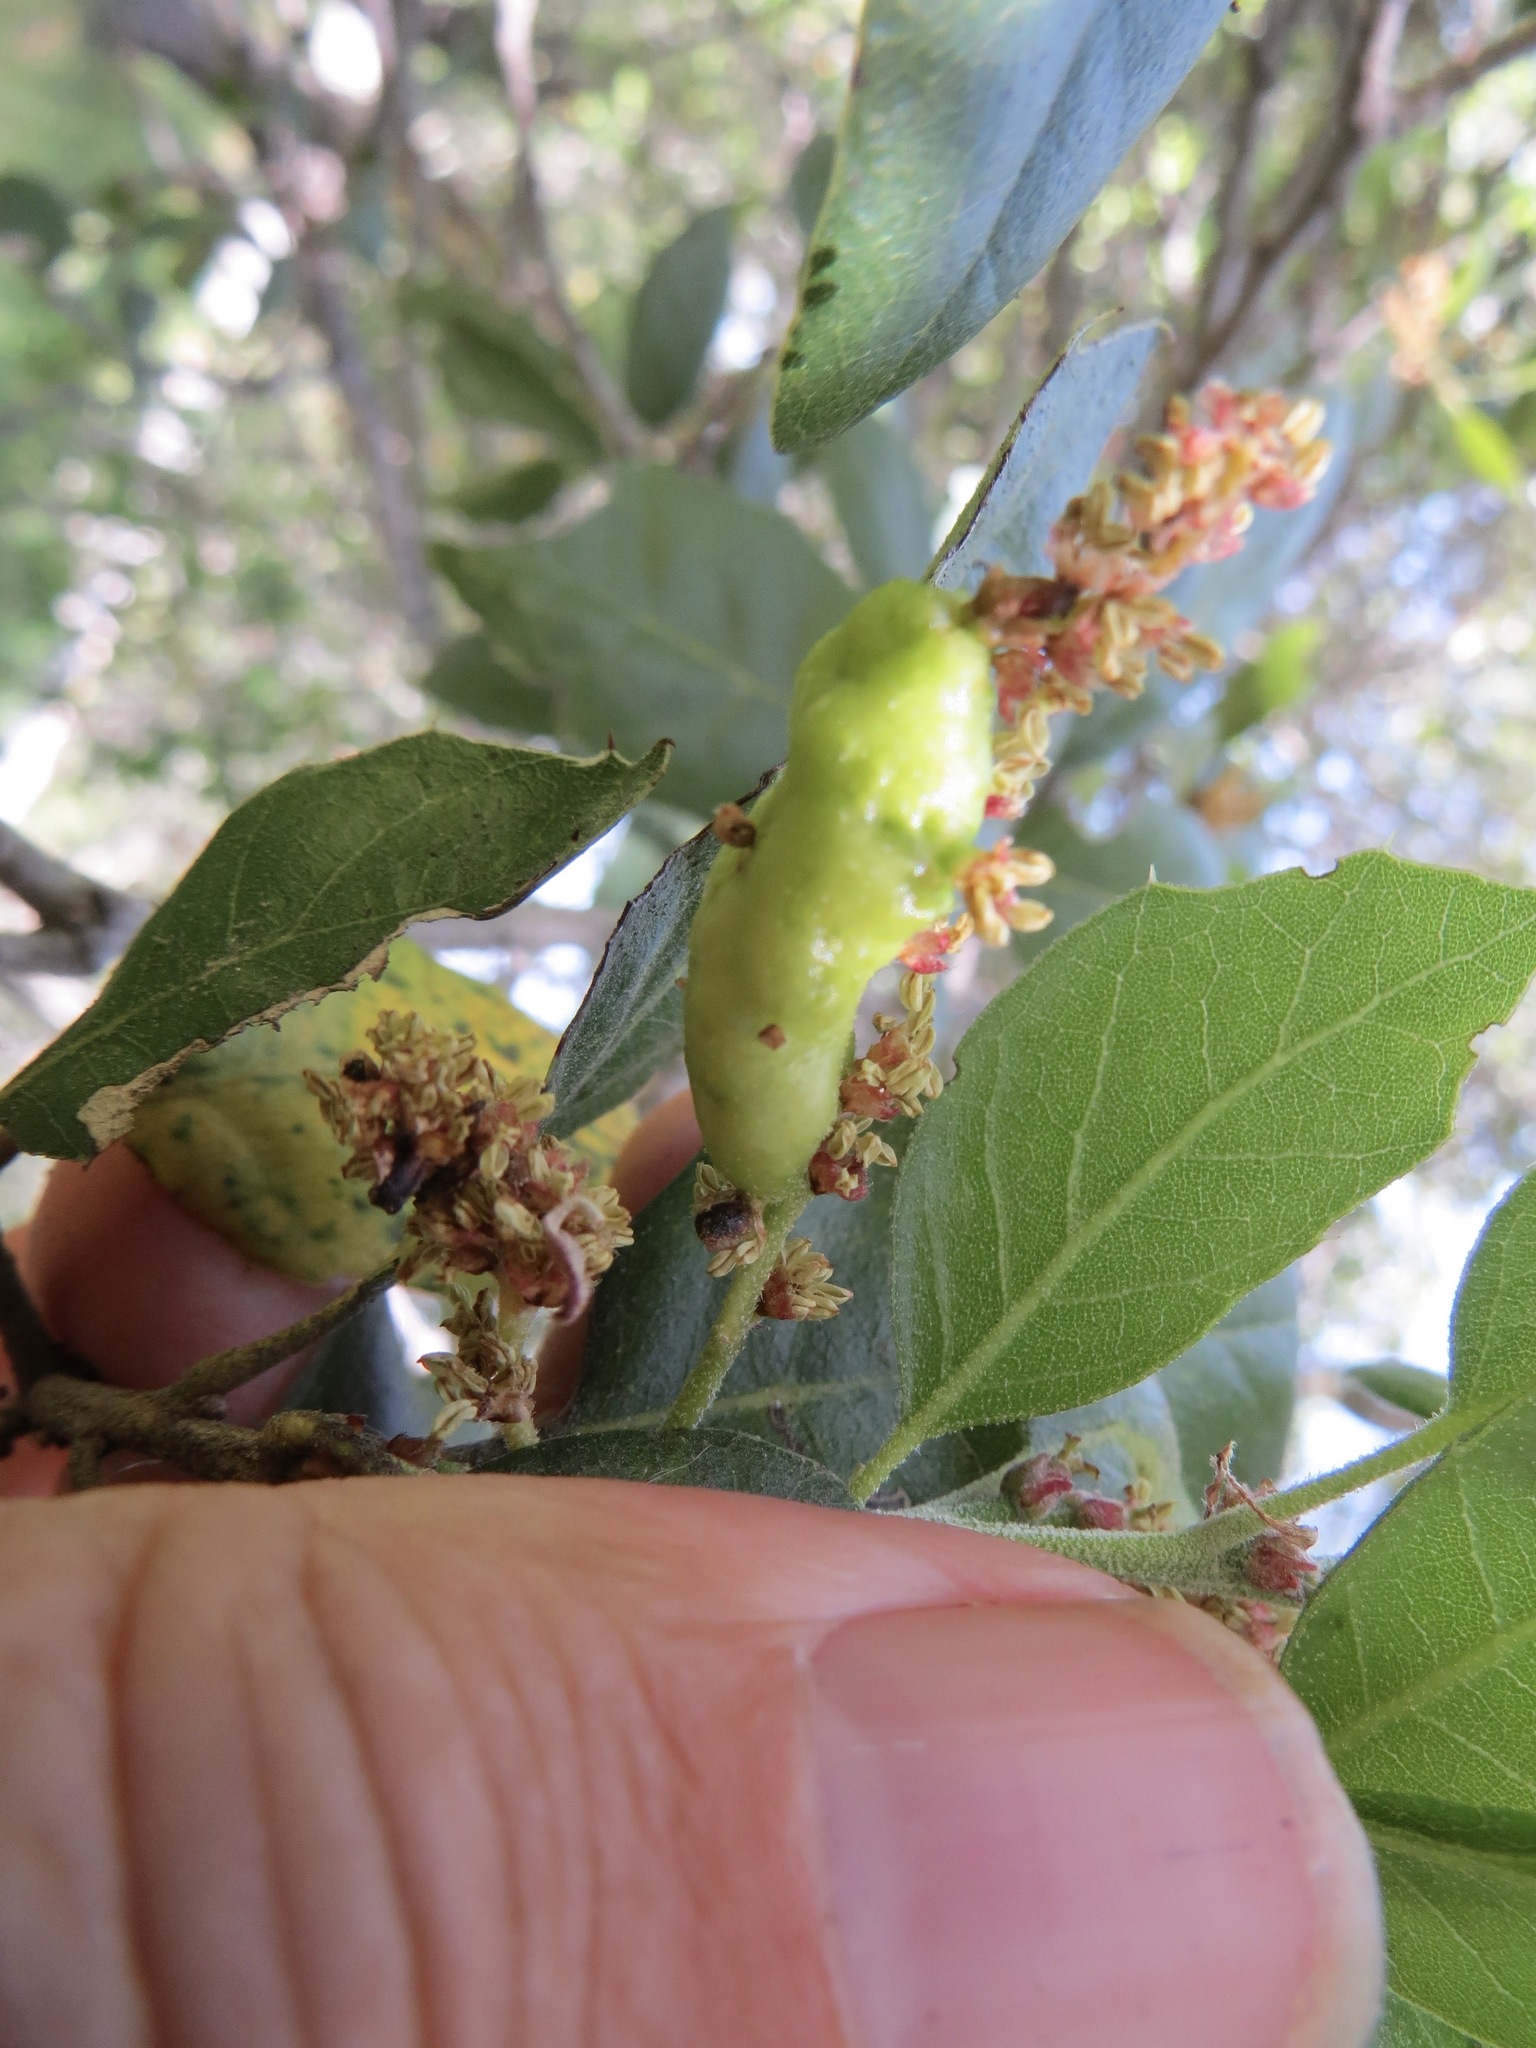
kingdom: Animalia
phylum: Arthropoda
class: Insecta
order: Hymenoptera
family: Cynipidae
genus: Callirhytis
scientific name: Callirhytis
